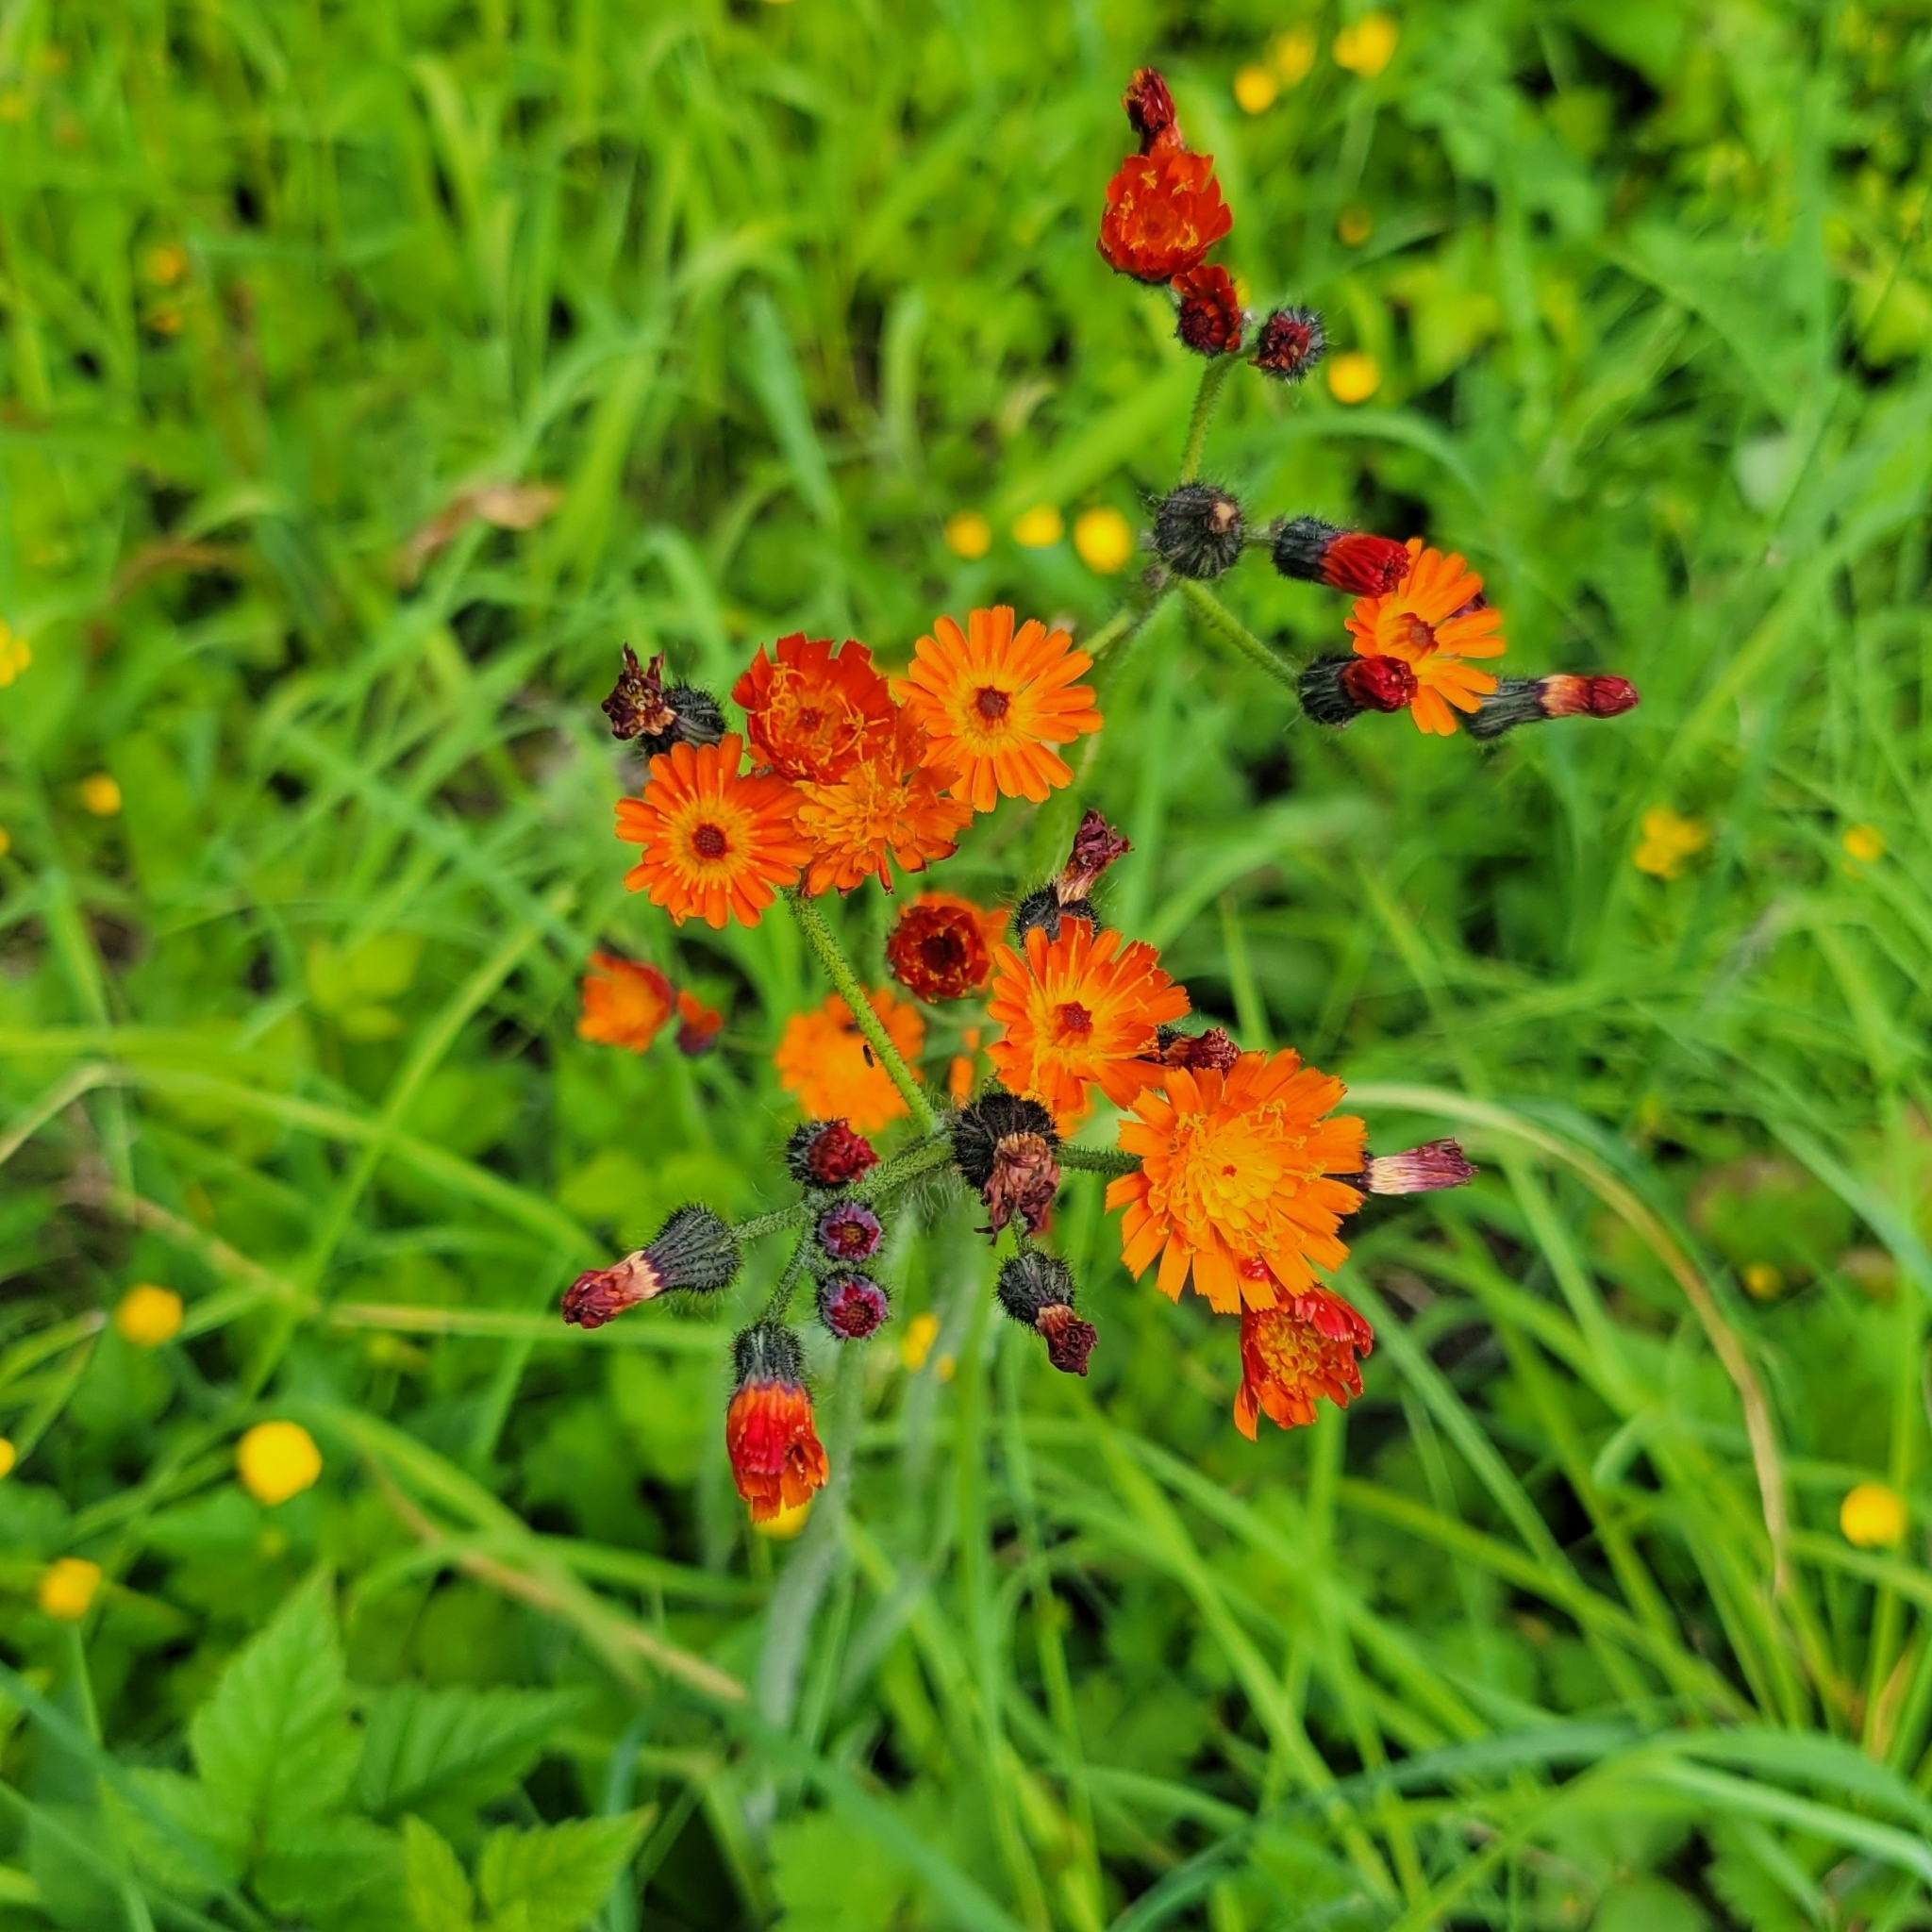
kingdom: Plantae
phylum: Tracheophyta
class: Magnoliopsida
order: Asterales
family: Asteraceae
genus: Pilosella
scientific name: Pilosella aurantiaca
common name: Fox-and-cubs
